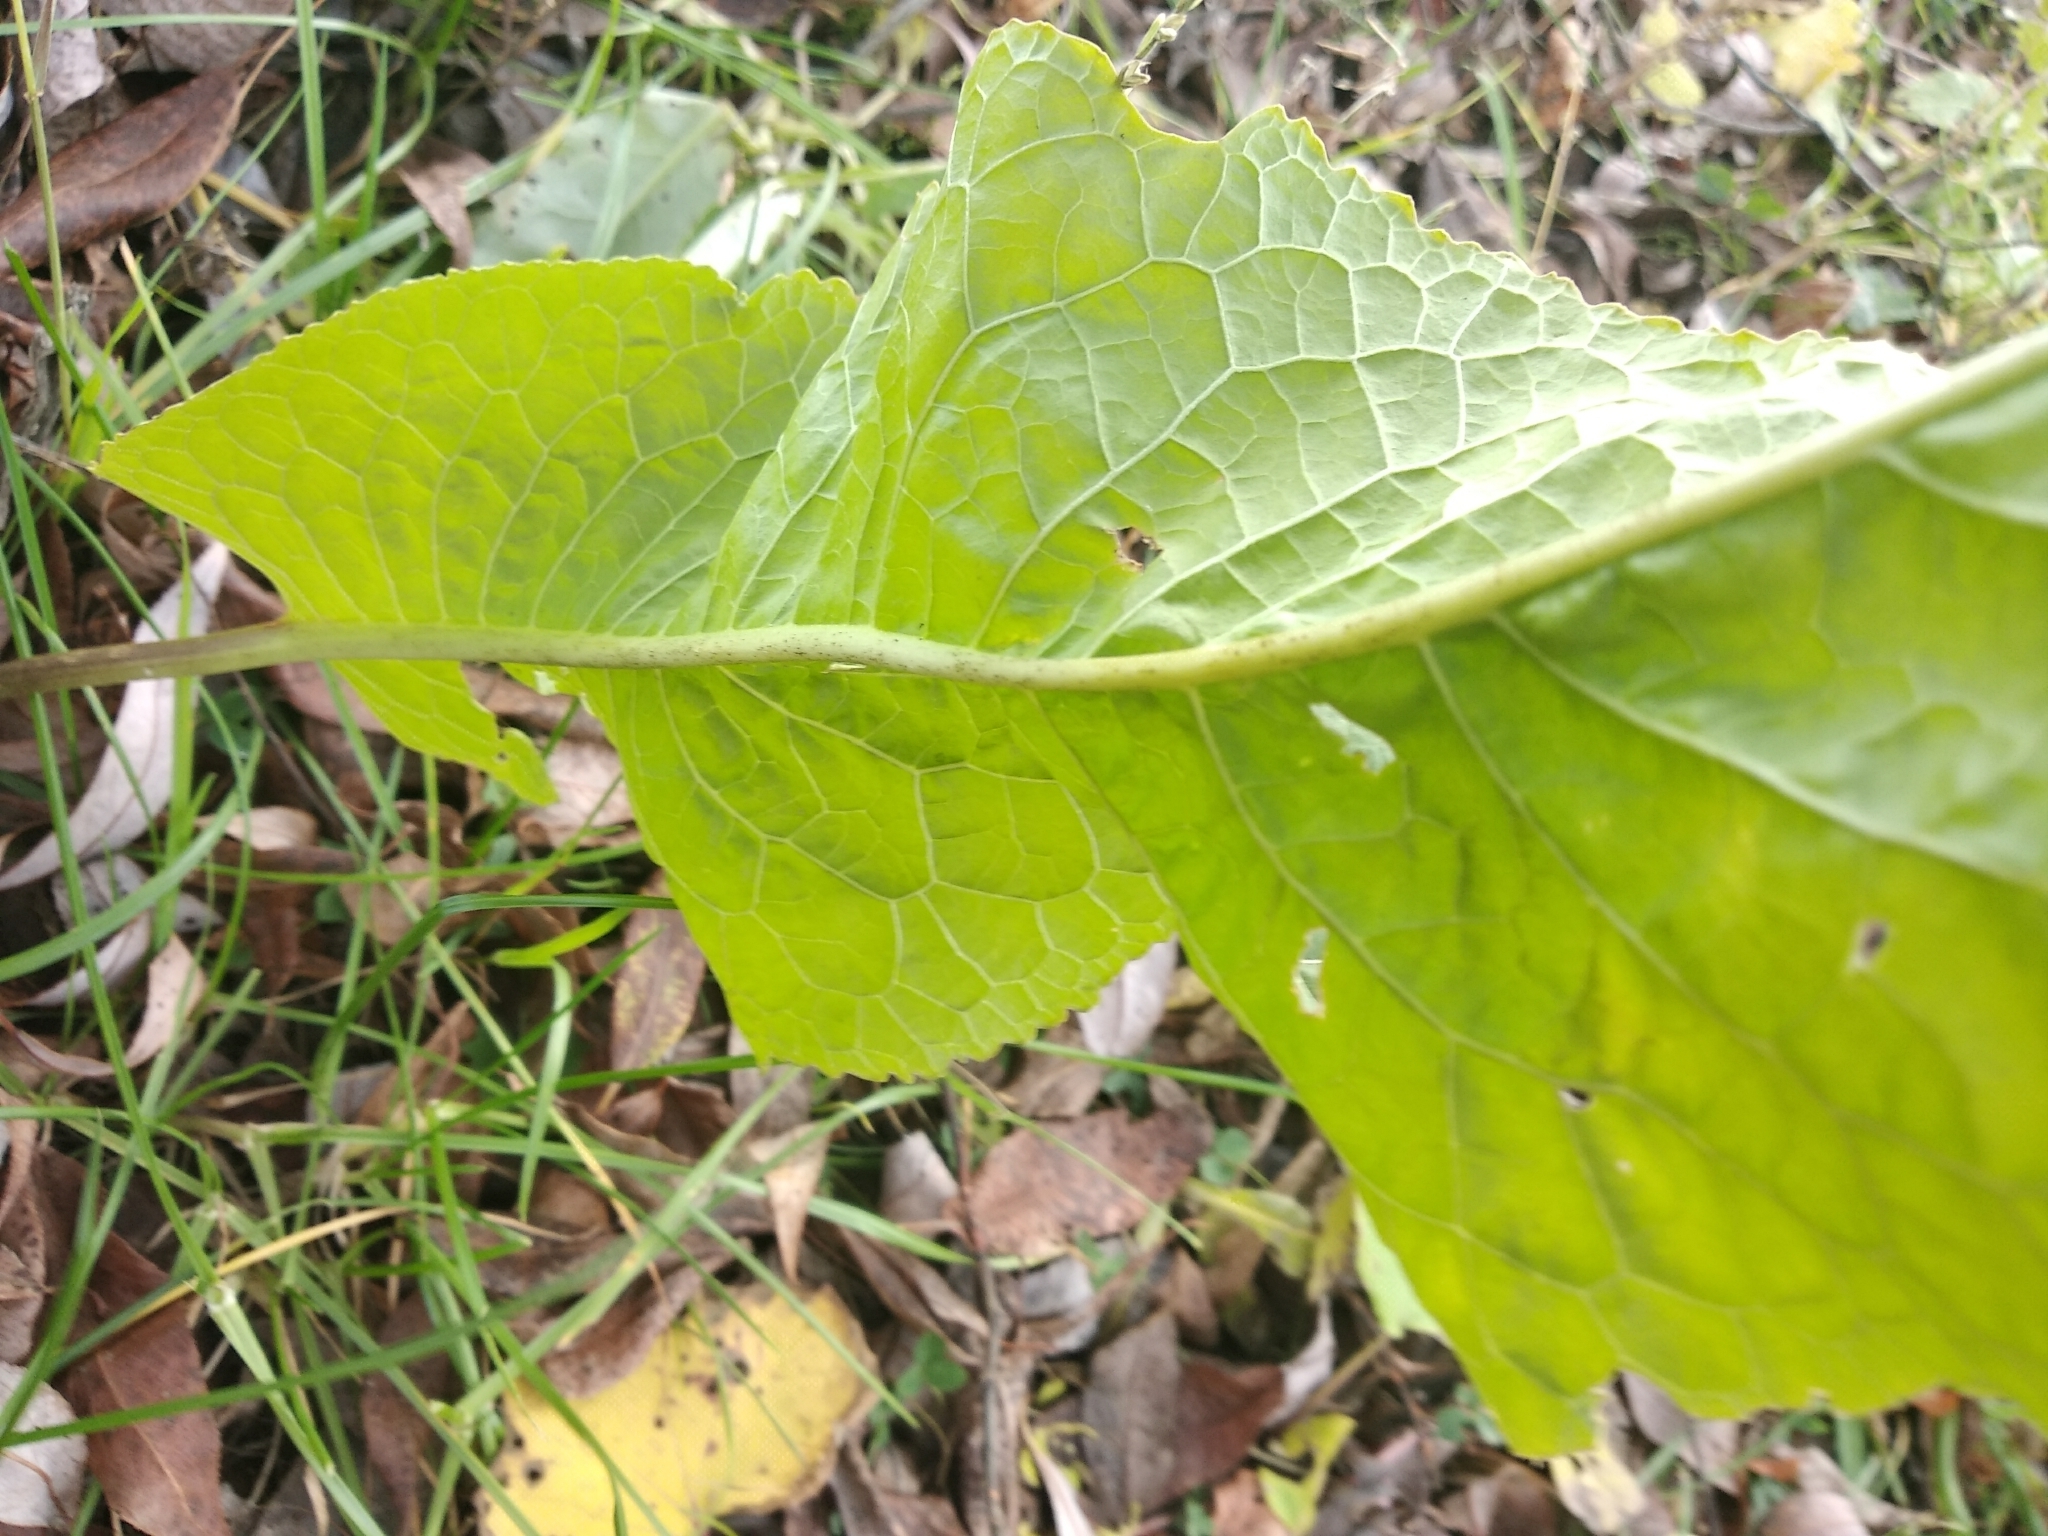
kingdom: Plantae
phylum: Tracheophyta
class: Magnoliopsida
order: Brassicales
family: Brassicaceae
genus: Armoracia
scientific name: Armoracia rusticana
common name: Horseradish
